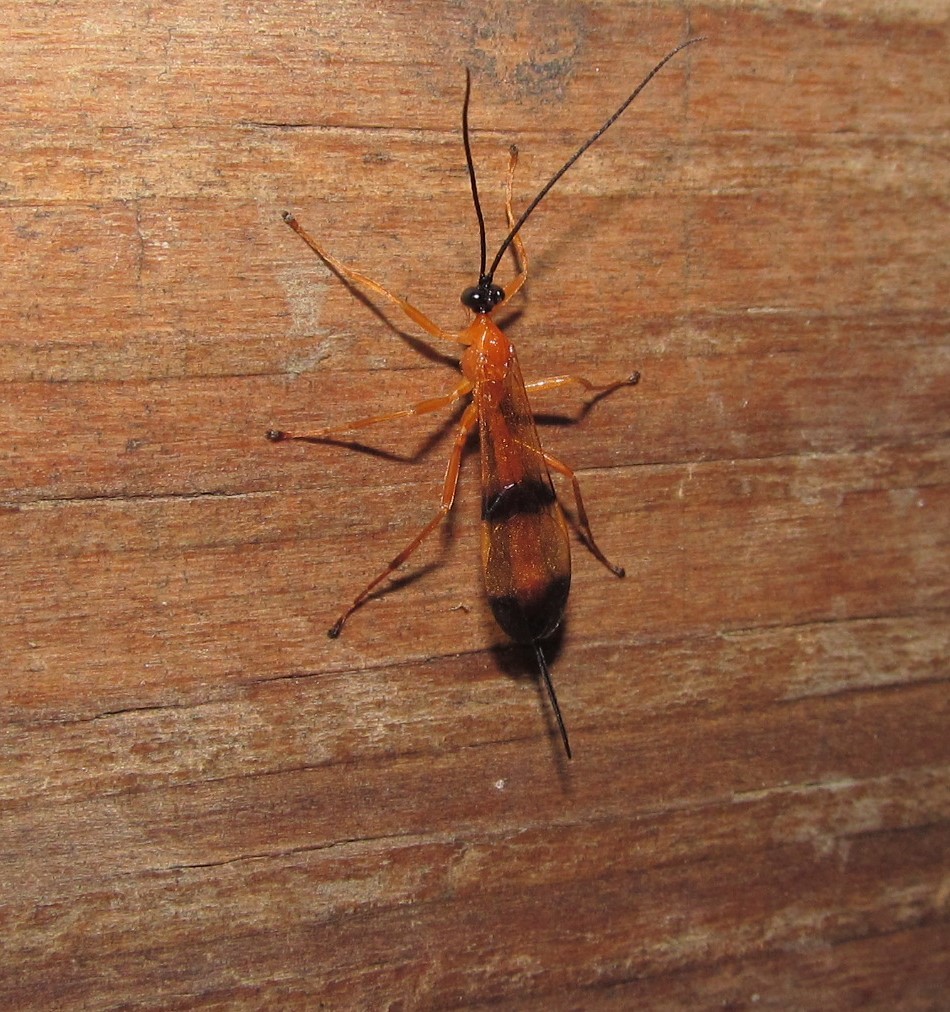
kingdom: Animalia
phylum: Arthropoda
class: Insecta
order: Hymenoptera
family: Ichneumonidae
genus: Acrotaphus
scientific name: Acrotaphus wiltii
